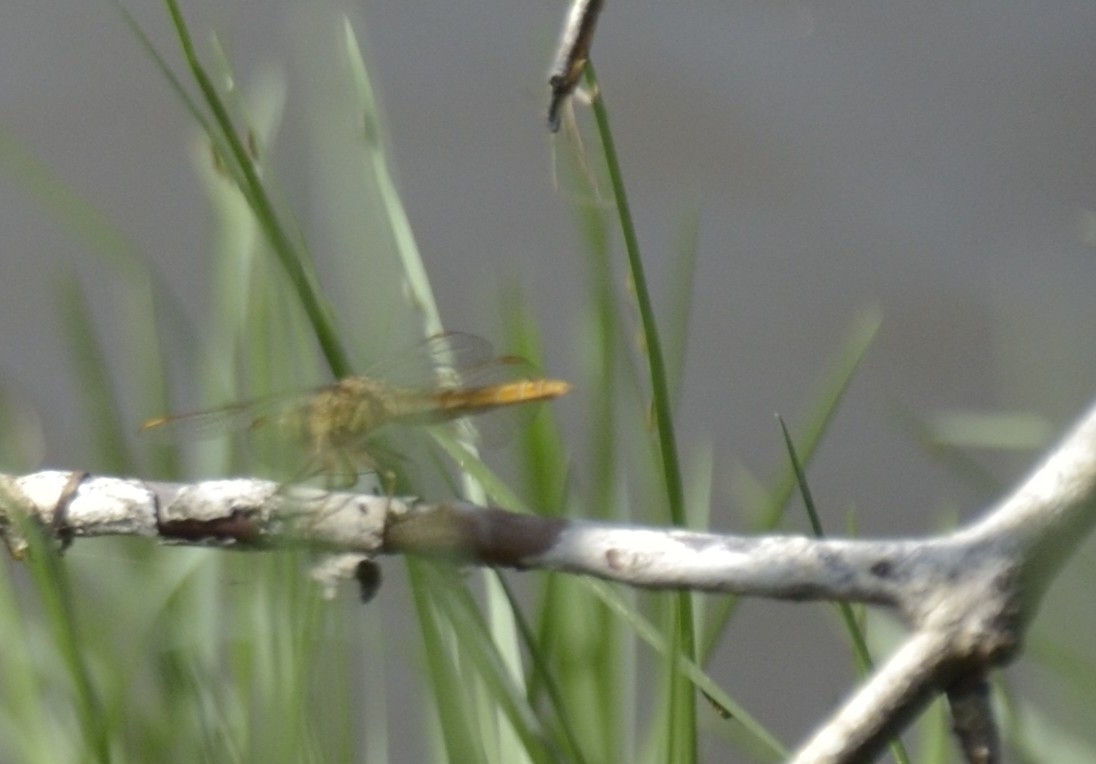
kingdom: Animalia
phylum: Arthropoda
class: Insecta
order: Odonata
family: Libellulidae
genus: Brachythemis
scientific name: Brachythemis contaminata
